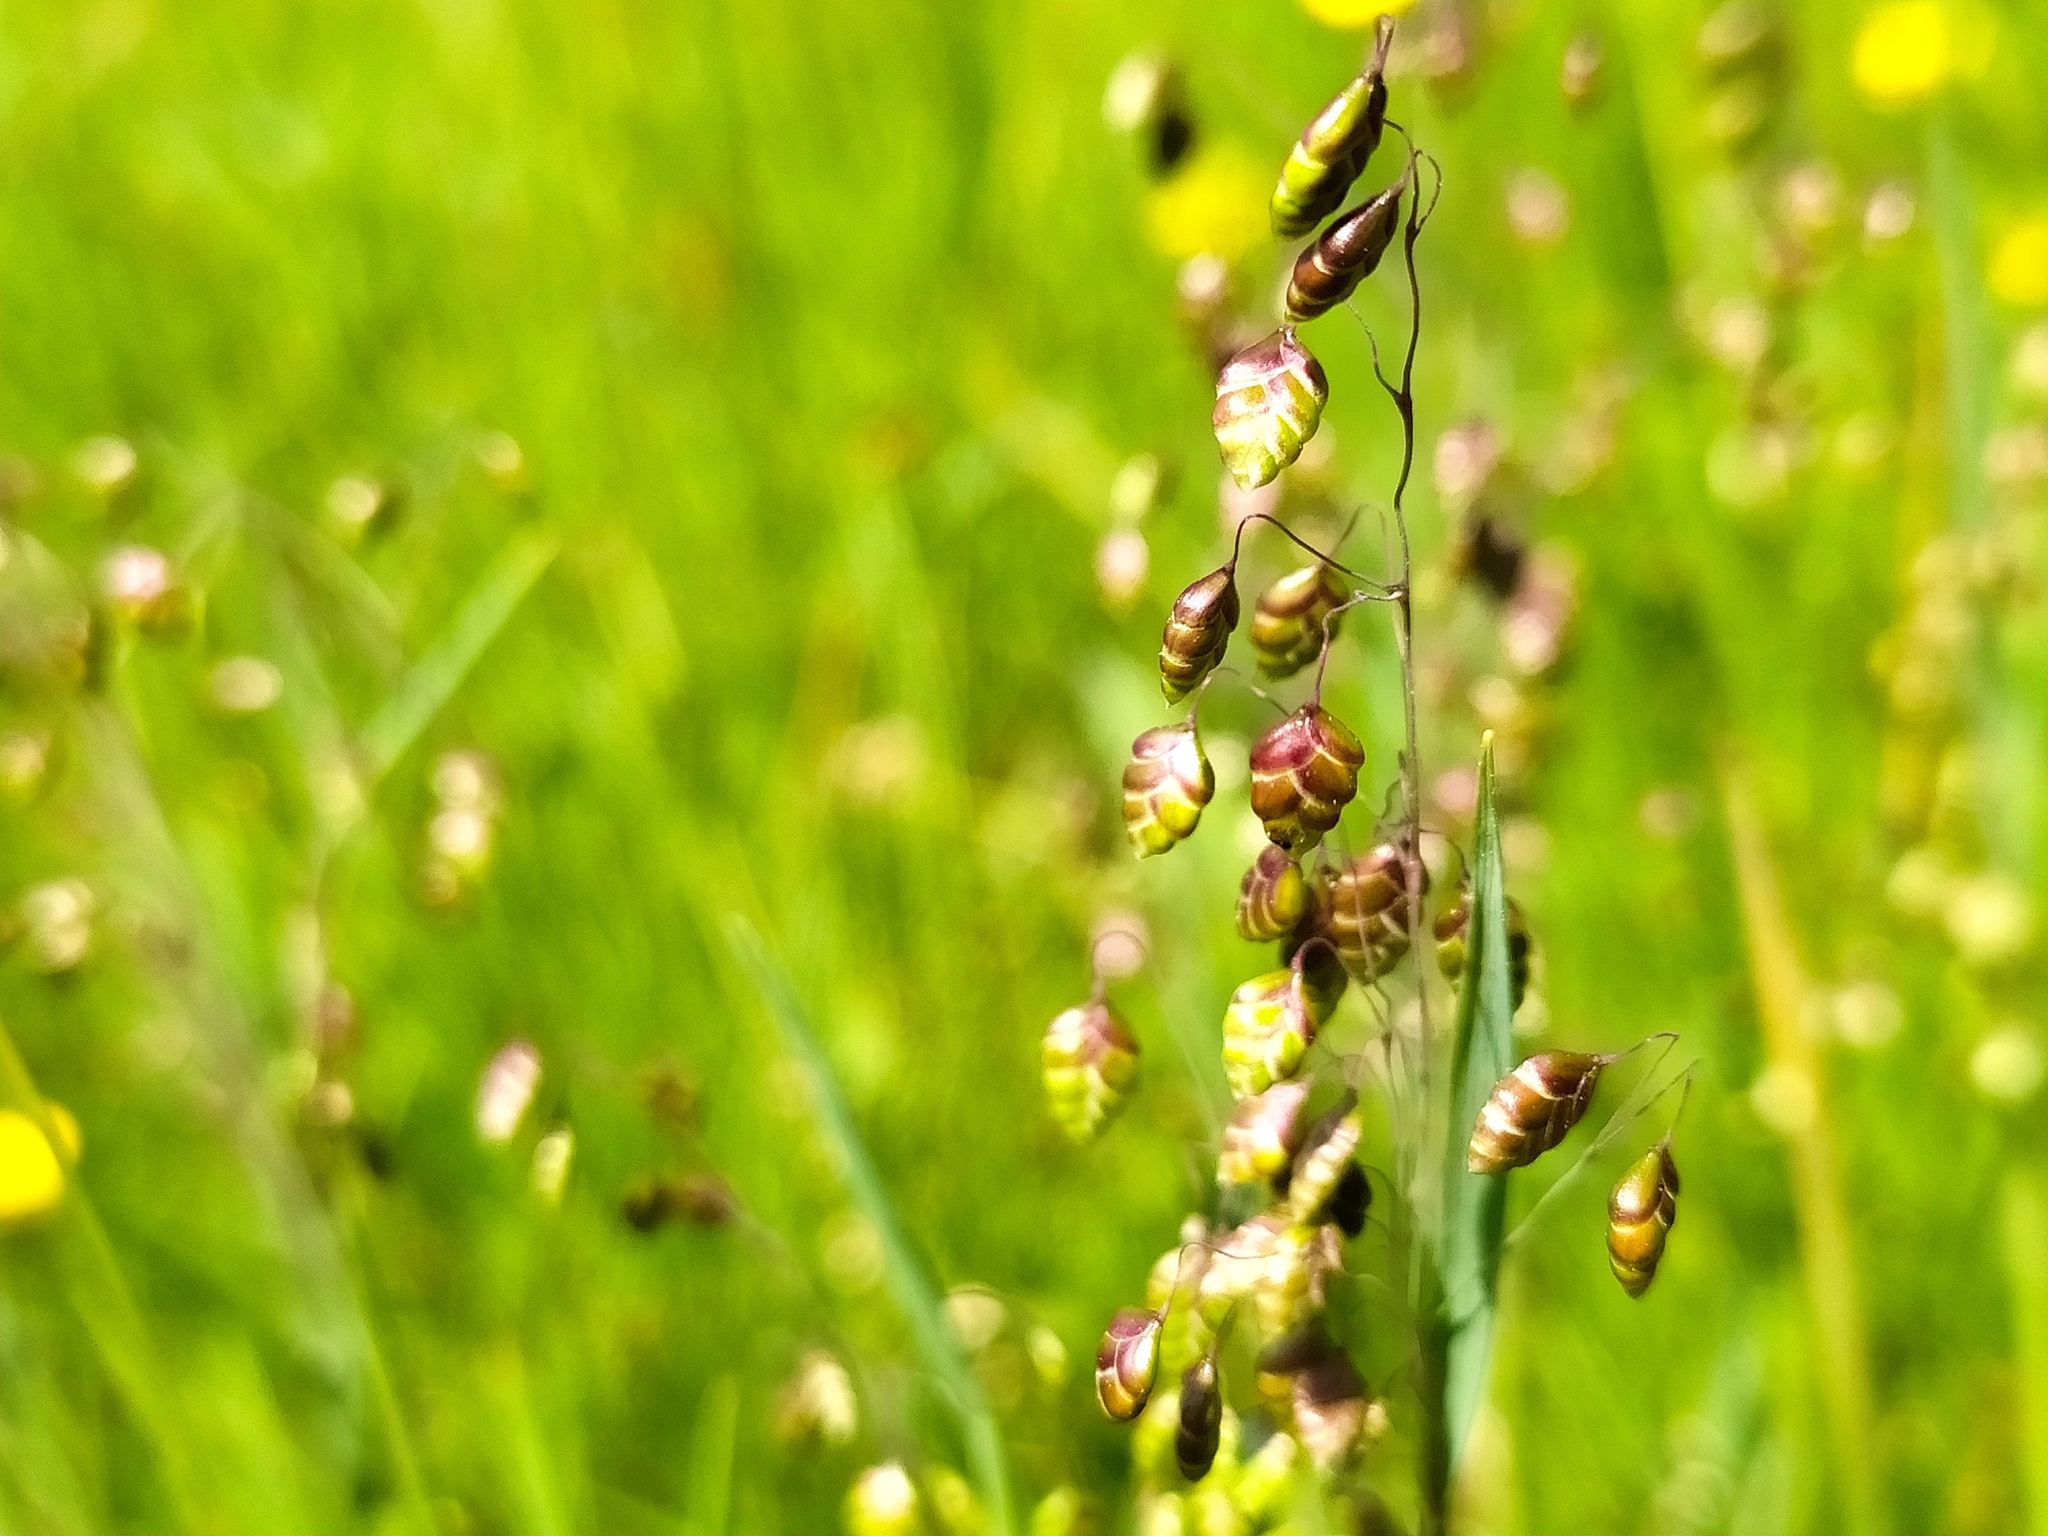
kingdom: Plantae
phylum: Tracheophyta
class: Liliopsida
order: Poales
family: Poaceae
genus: Briza
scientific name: Briza media
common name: Quaking grass
